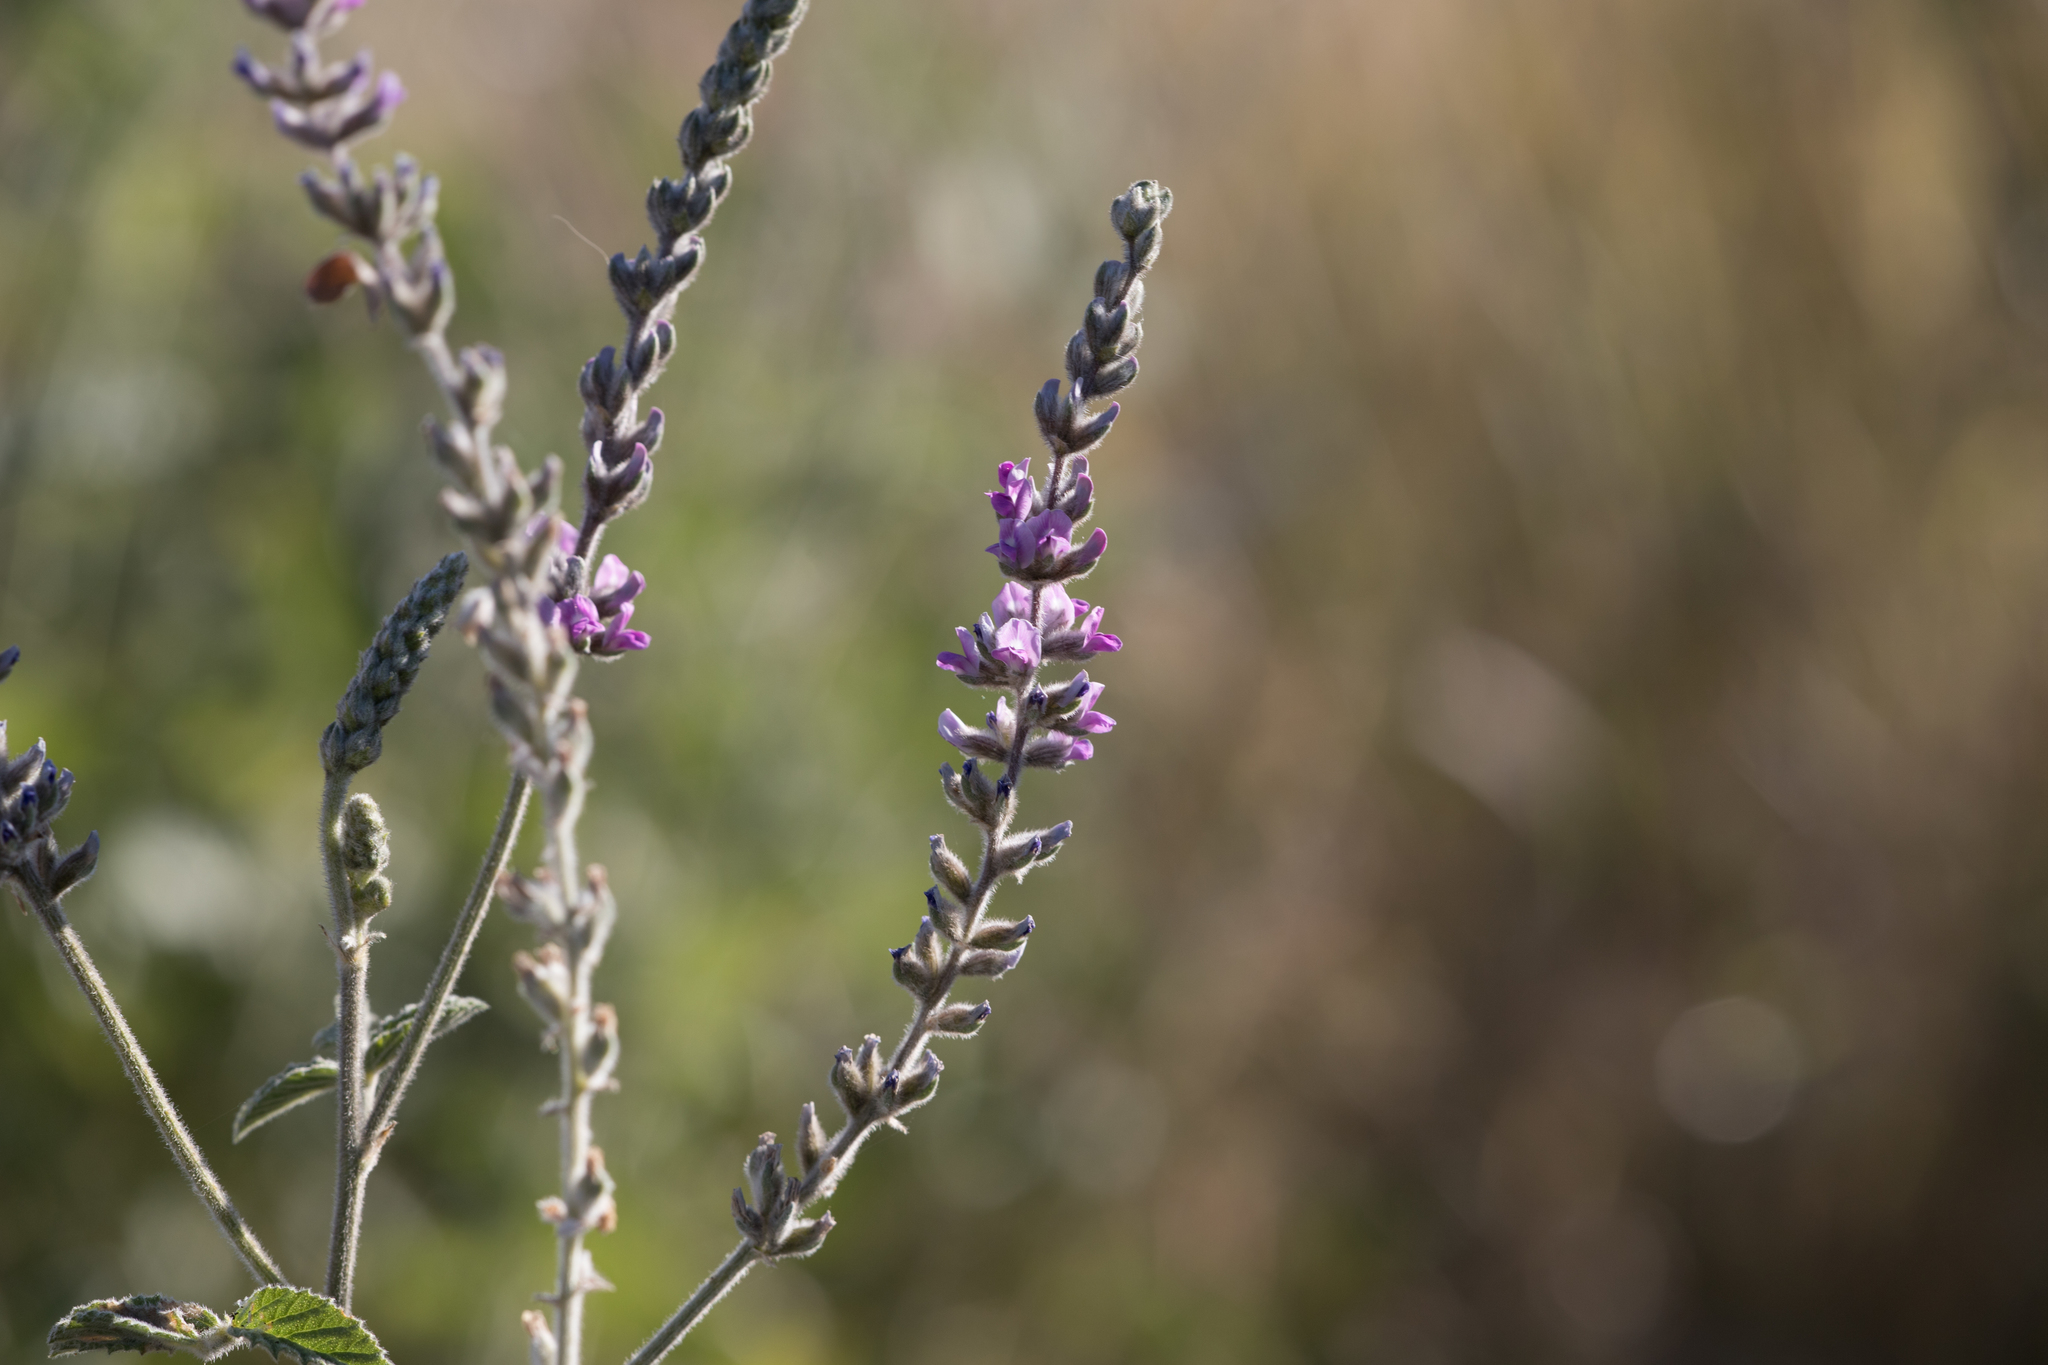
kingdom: Plantae
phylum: Tracheophyta
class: Magnoliopsida
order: Fabales
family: Fabaceae
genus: Cullen
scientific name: Cullen cinereum
